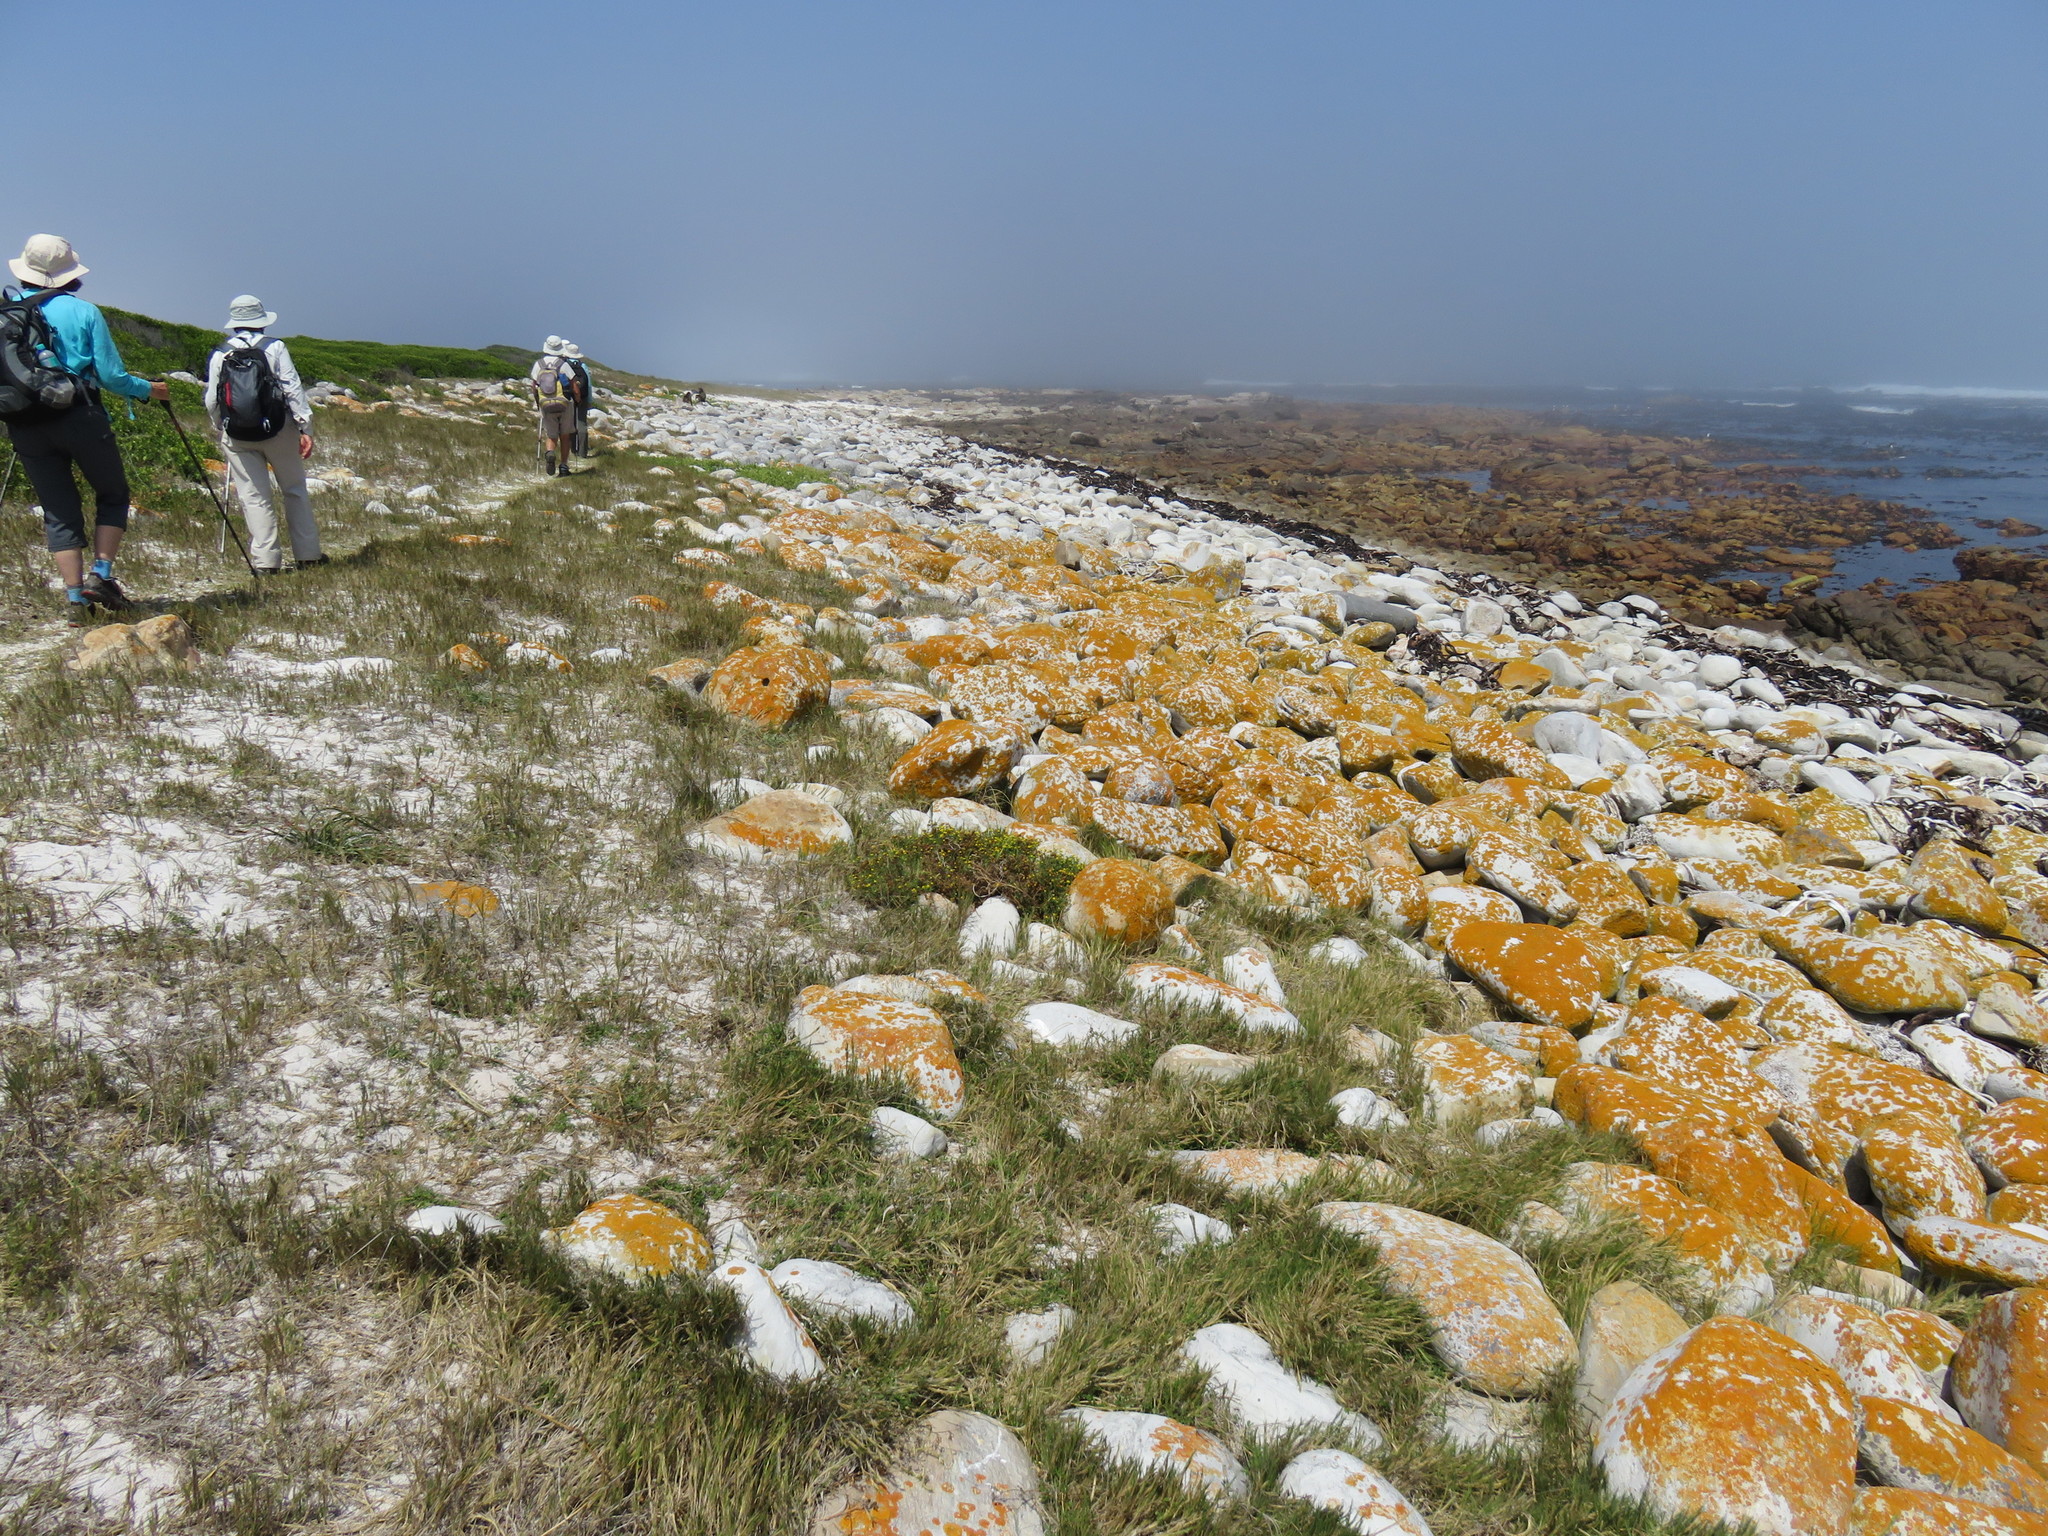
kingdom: Fungi
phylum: Ascomycota
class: Lecanoromycetes
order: Teloschistales
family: Teloschistaceae
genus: Xanthoria
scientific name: Xanthoria elegans
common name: Elegant sunburst lichen
